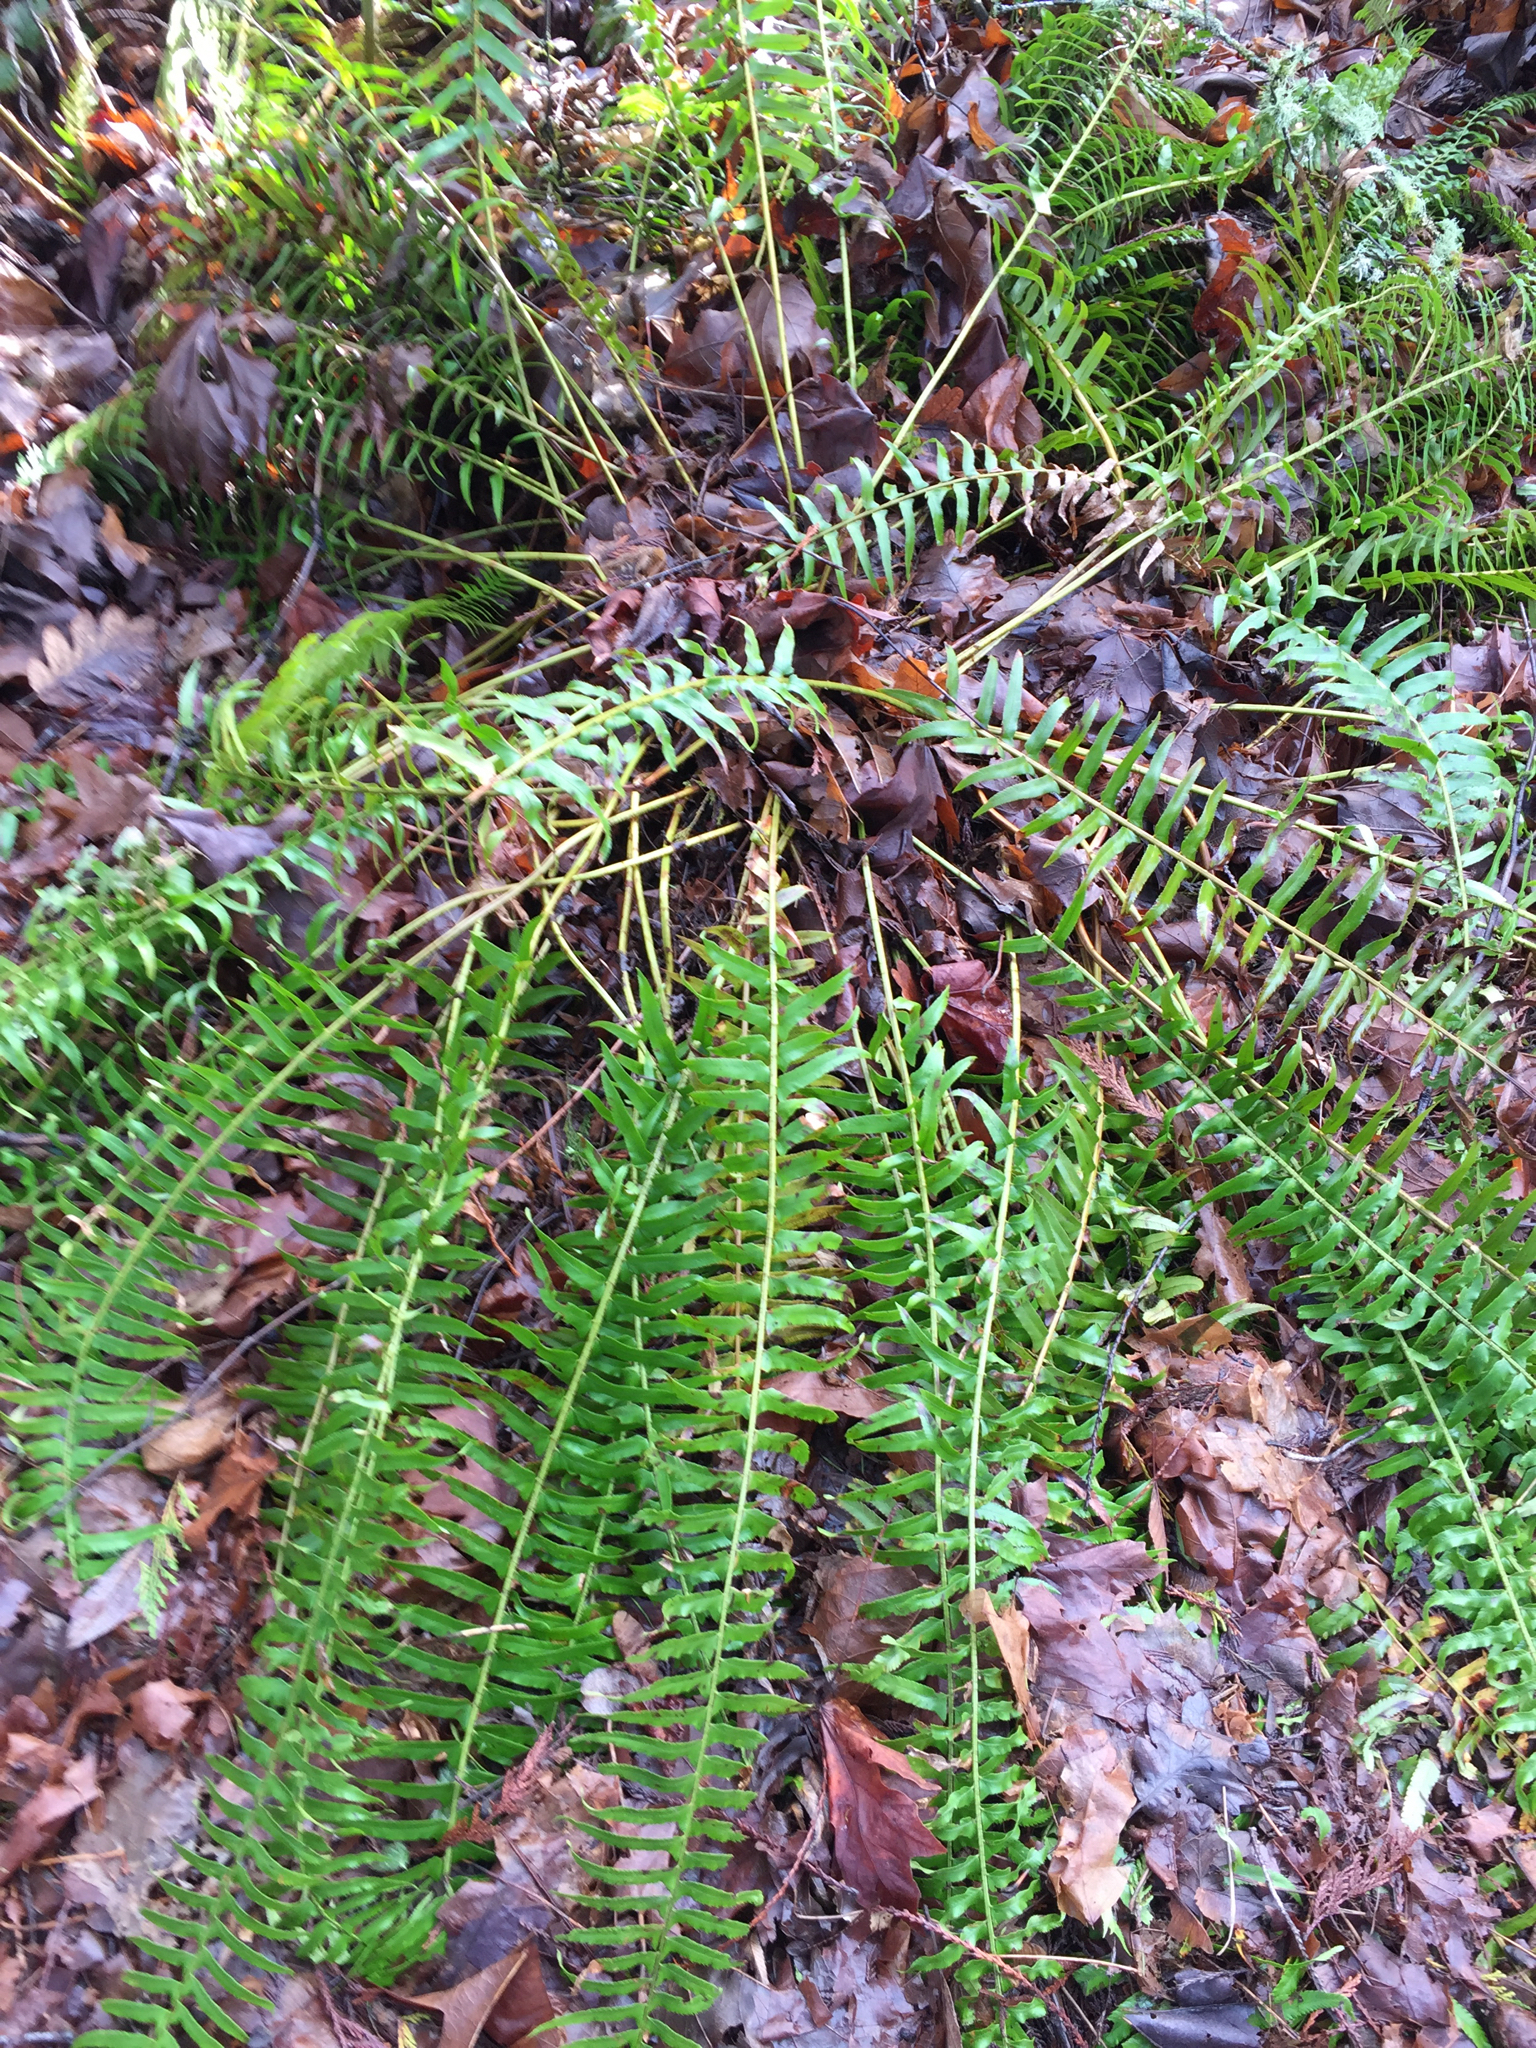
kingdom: Plantae
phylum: Tracheophyta
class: Polypodiopsida
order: Polypodiales
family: Dryopteridaceae
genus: Polystichum
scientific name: Polystichum munitum
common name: Western sword-fern
